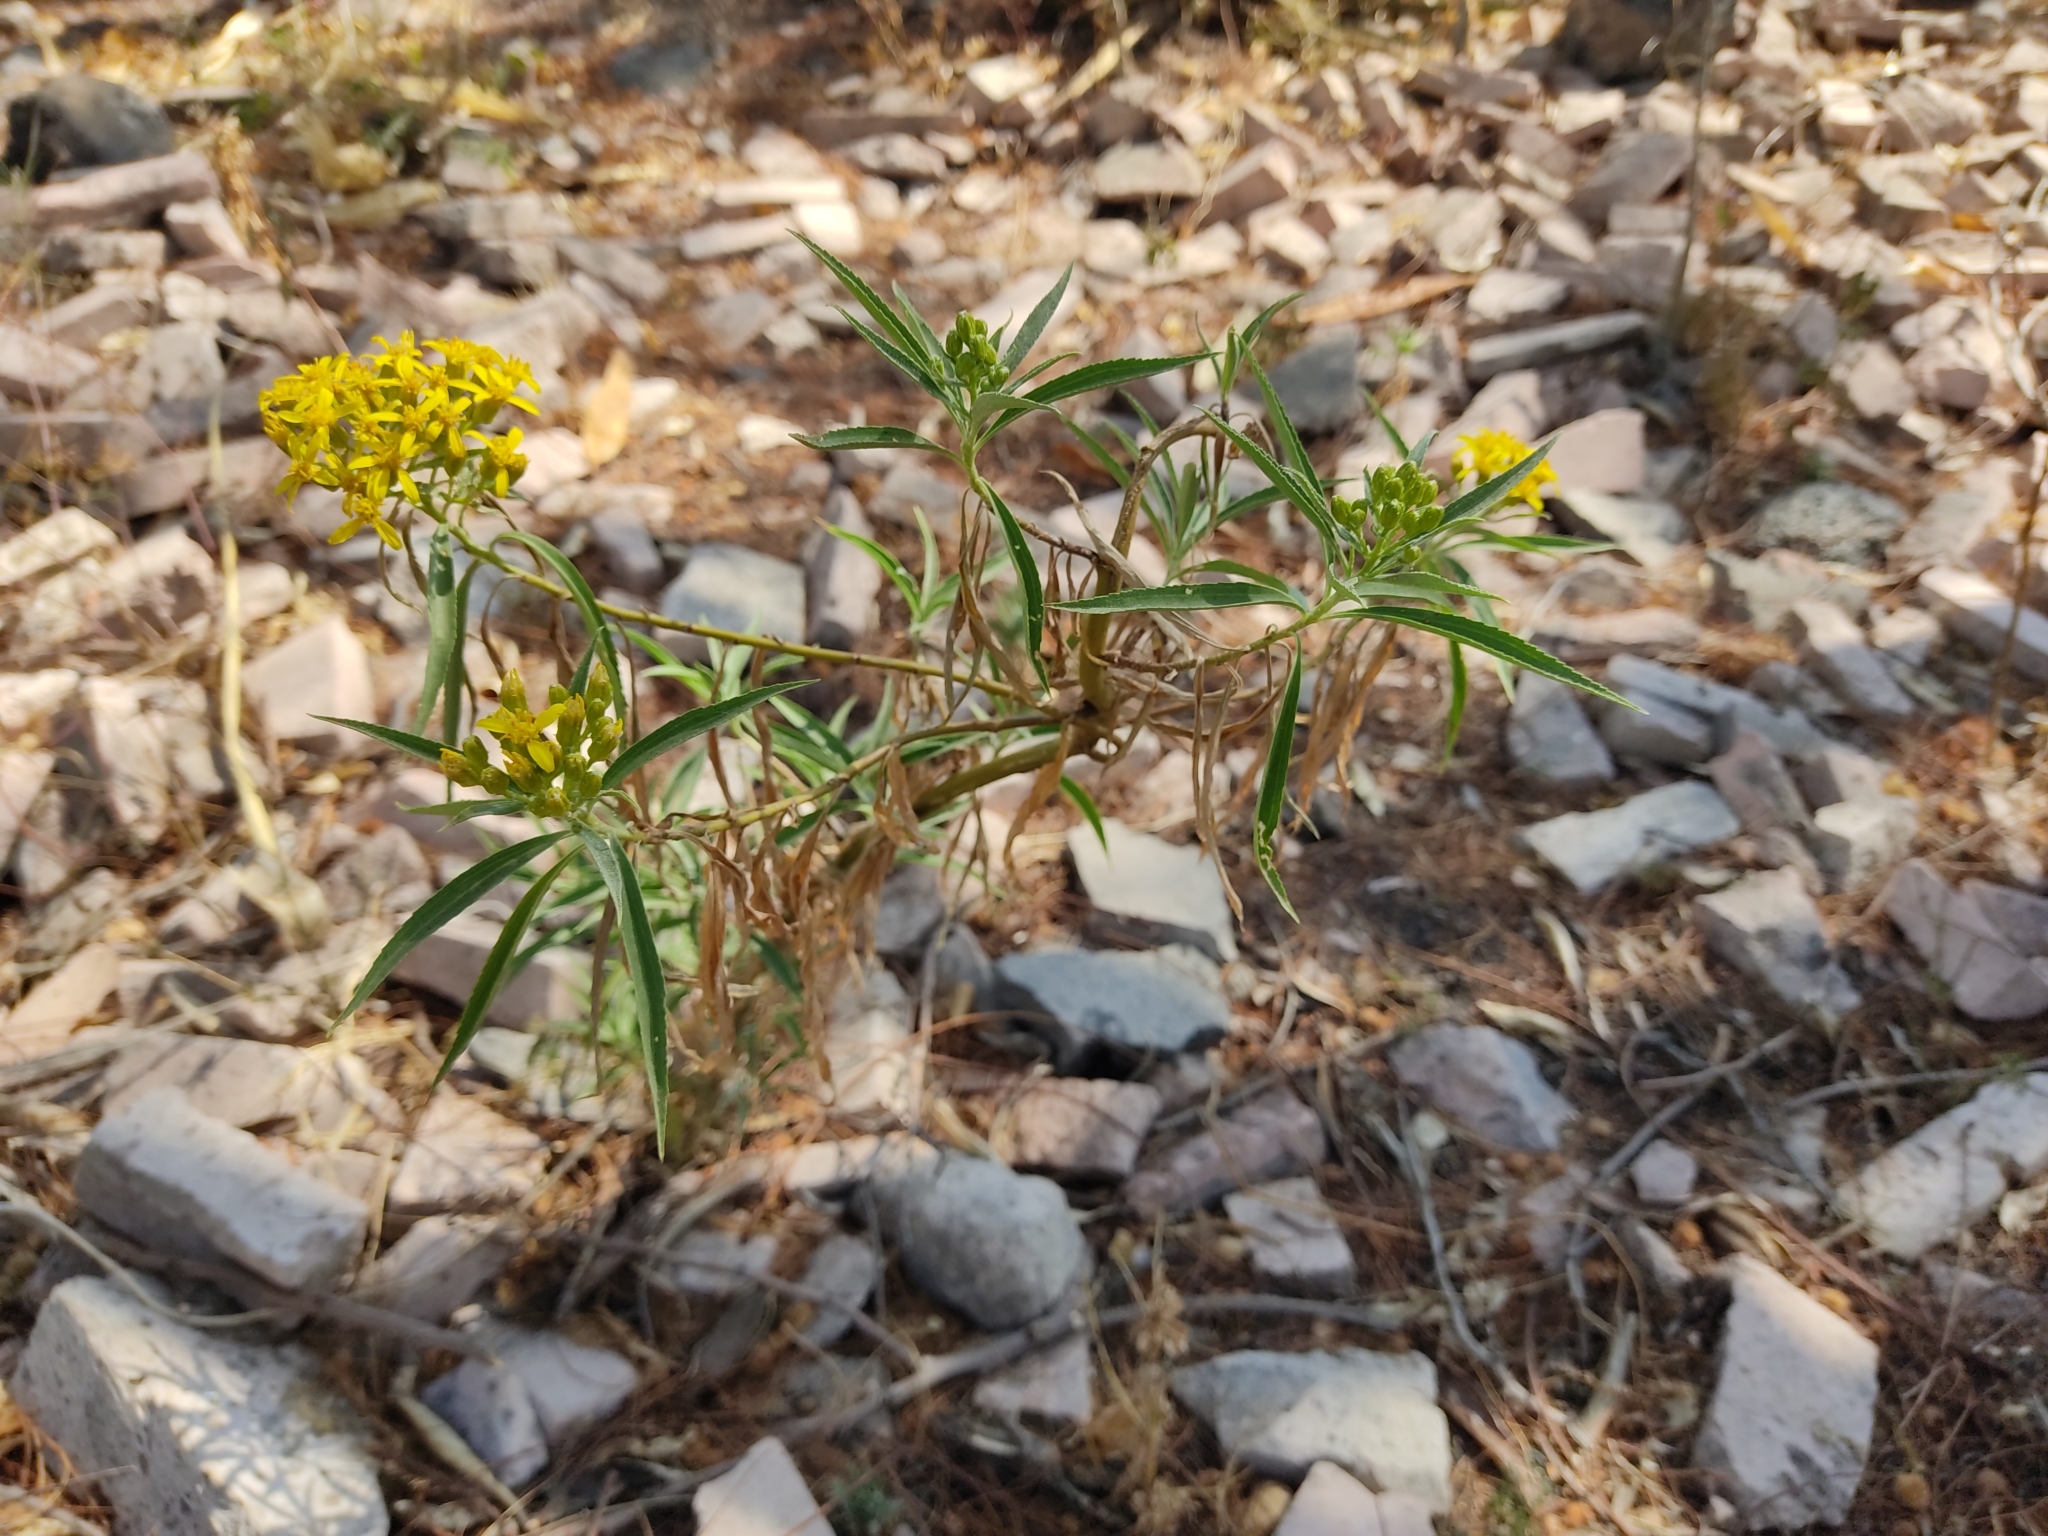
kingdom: Plantae
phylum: Tracheophyta
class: Magnoliopsida
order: Asterales
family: Asteraceae
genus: Barkleyanthus
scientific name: Barkleyanthus salicifolius
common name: Willow ragwort
